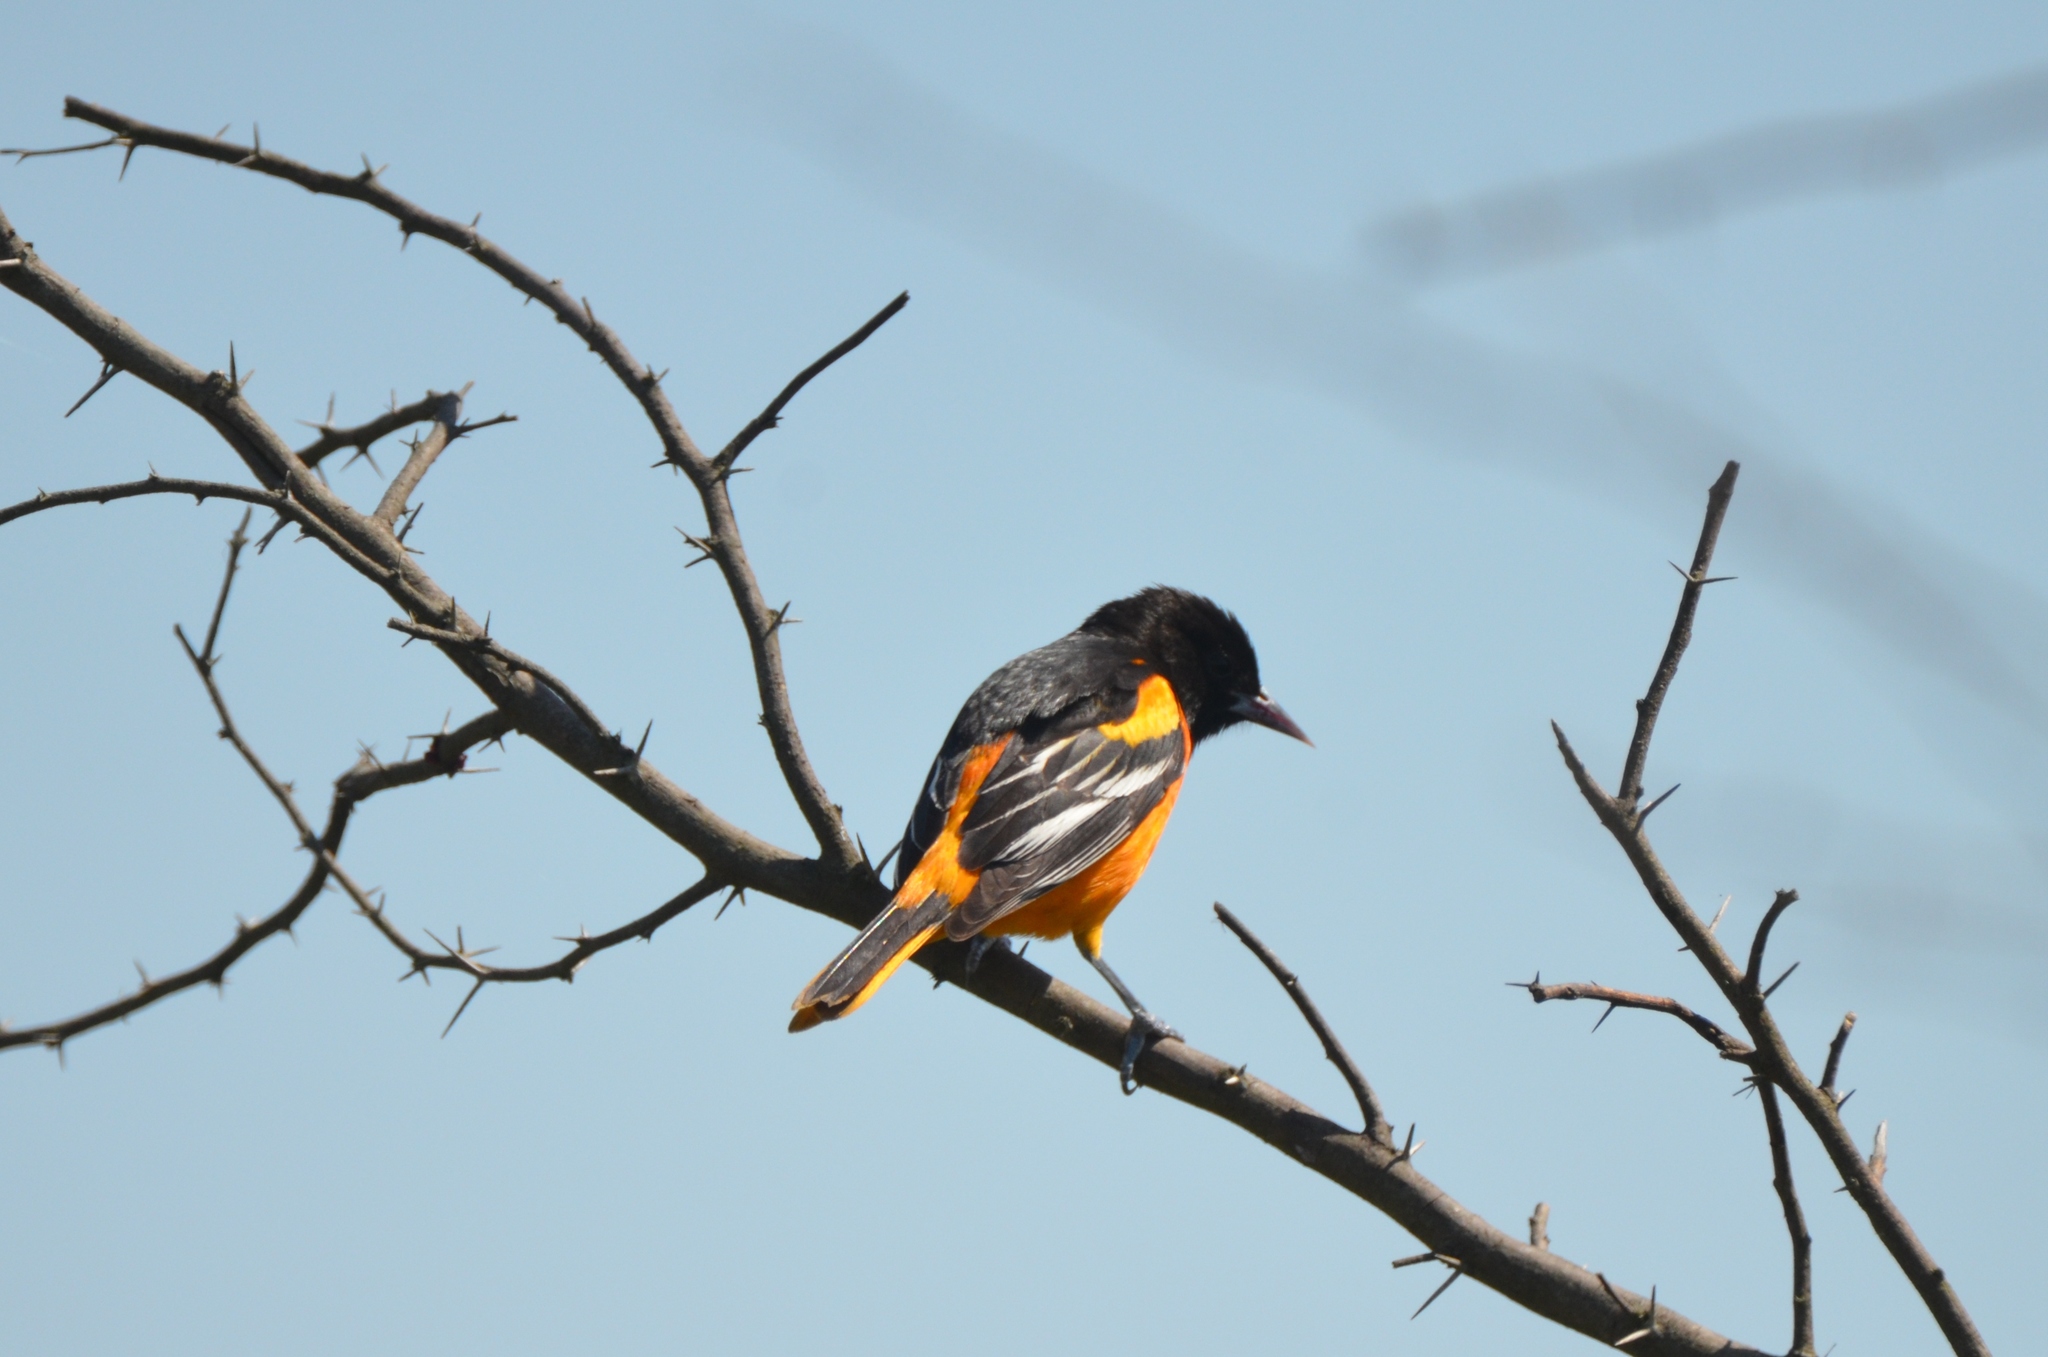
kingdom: Animalia
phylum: Chordata
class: Aves
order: Passeriformes
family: Icteridae
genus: Icterus
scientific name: Icterus galbula
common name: Baltimore oriole
